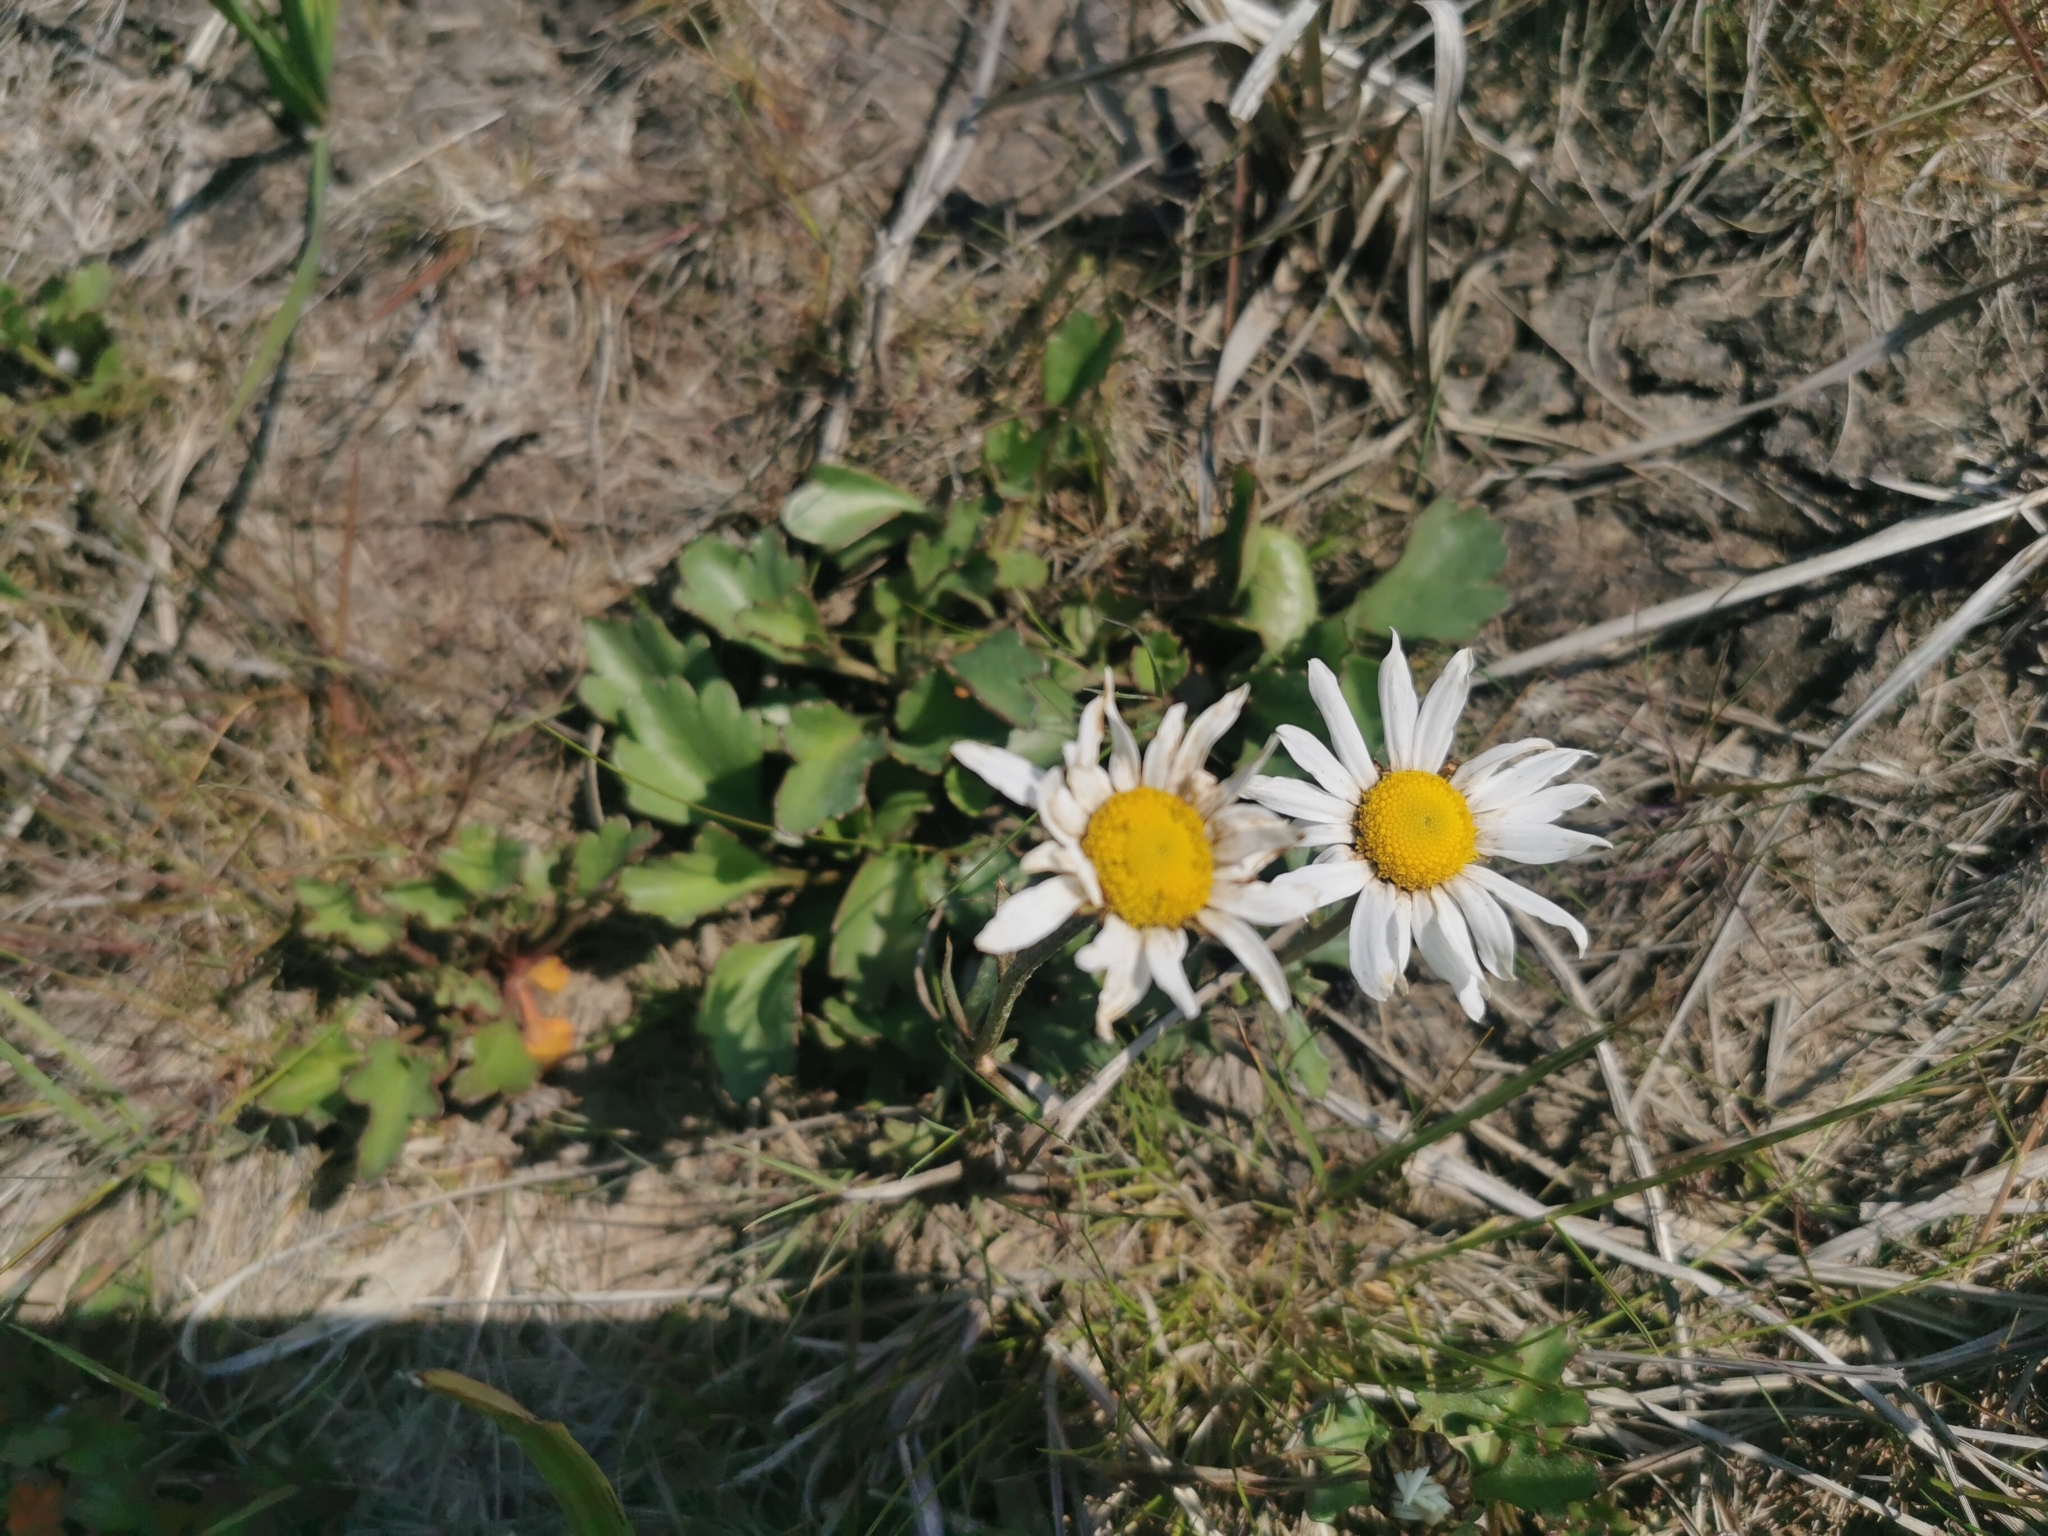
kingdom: Plantae
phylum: Tracheophyta
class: Magnoliopsida
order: Asterales
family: Asteraceae
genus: Arctanthemum
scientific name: Arctanthemum arcticum
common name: Arctic daisy
